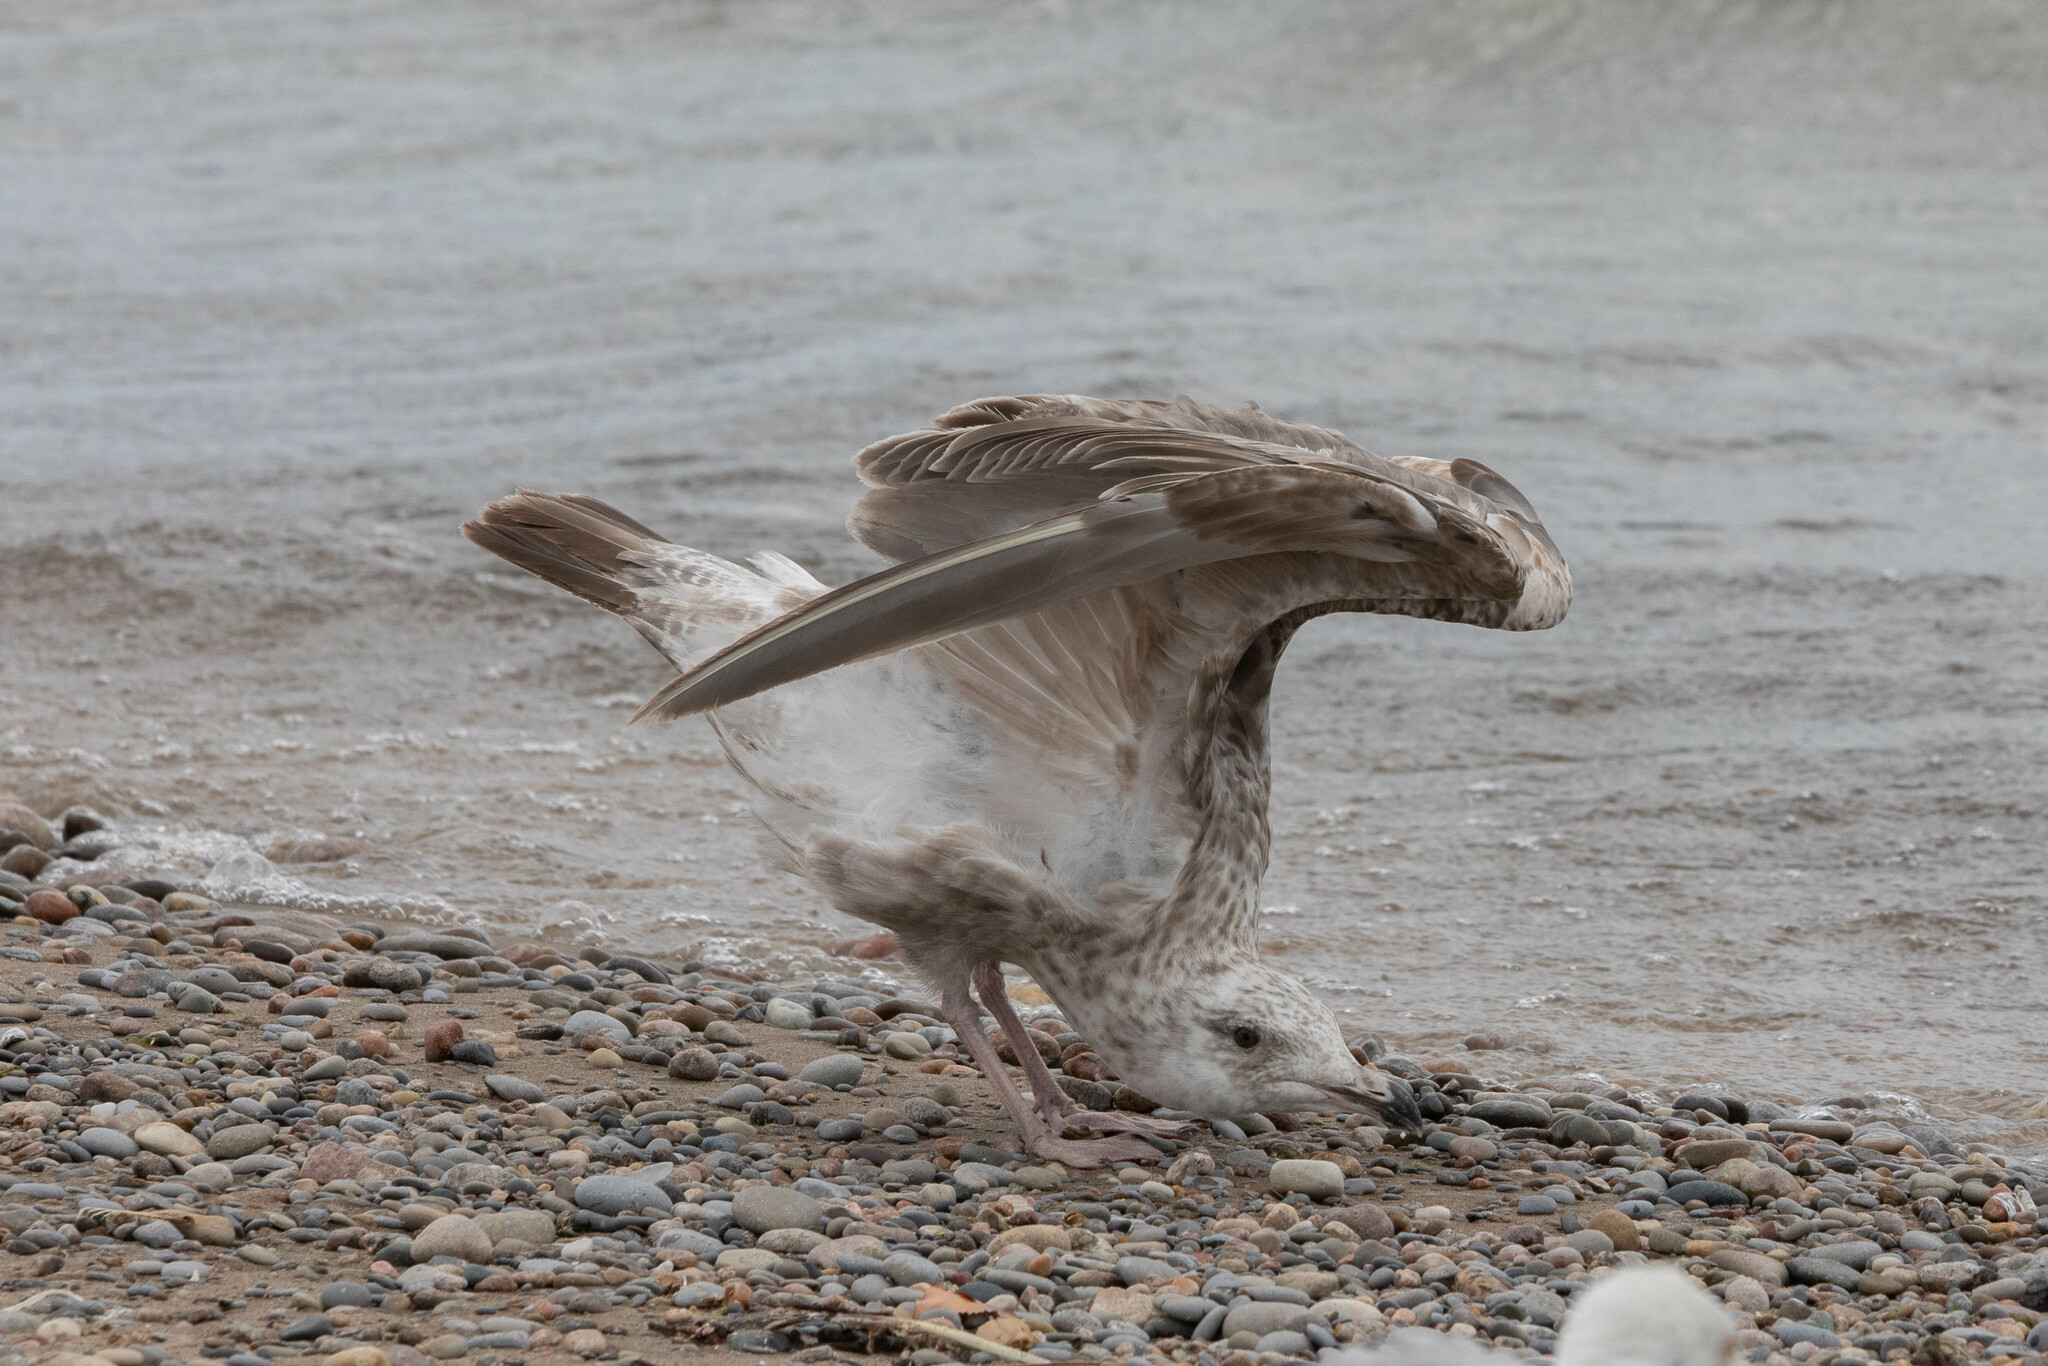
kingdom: Animalia
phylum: Chordata
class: Aves
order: Charadriiformes
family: Laridae
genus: Larus
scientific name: Larus argentatus
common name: Herring gull
